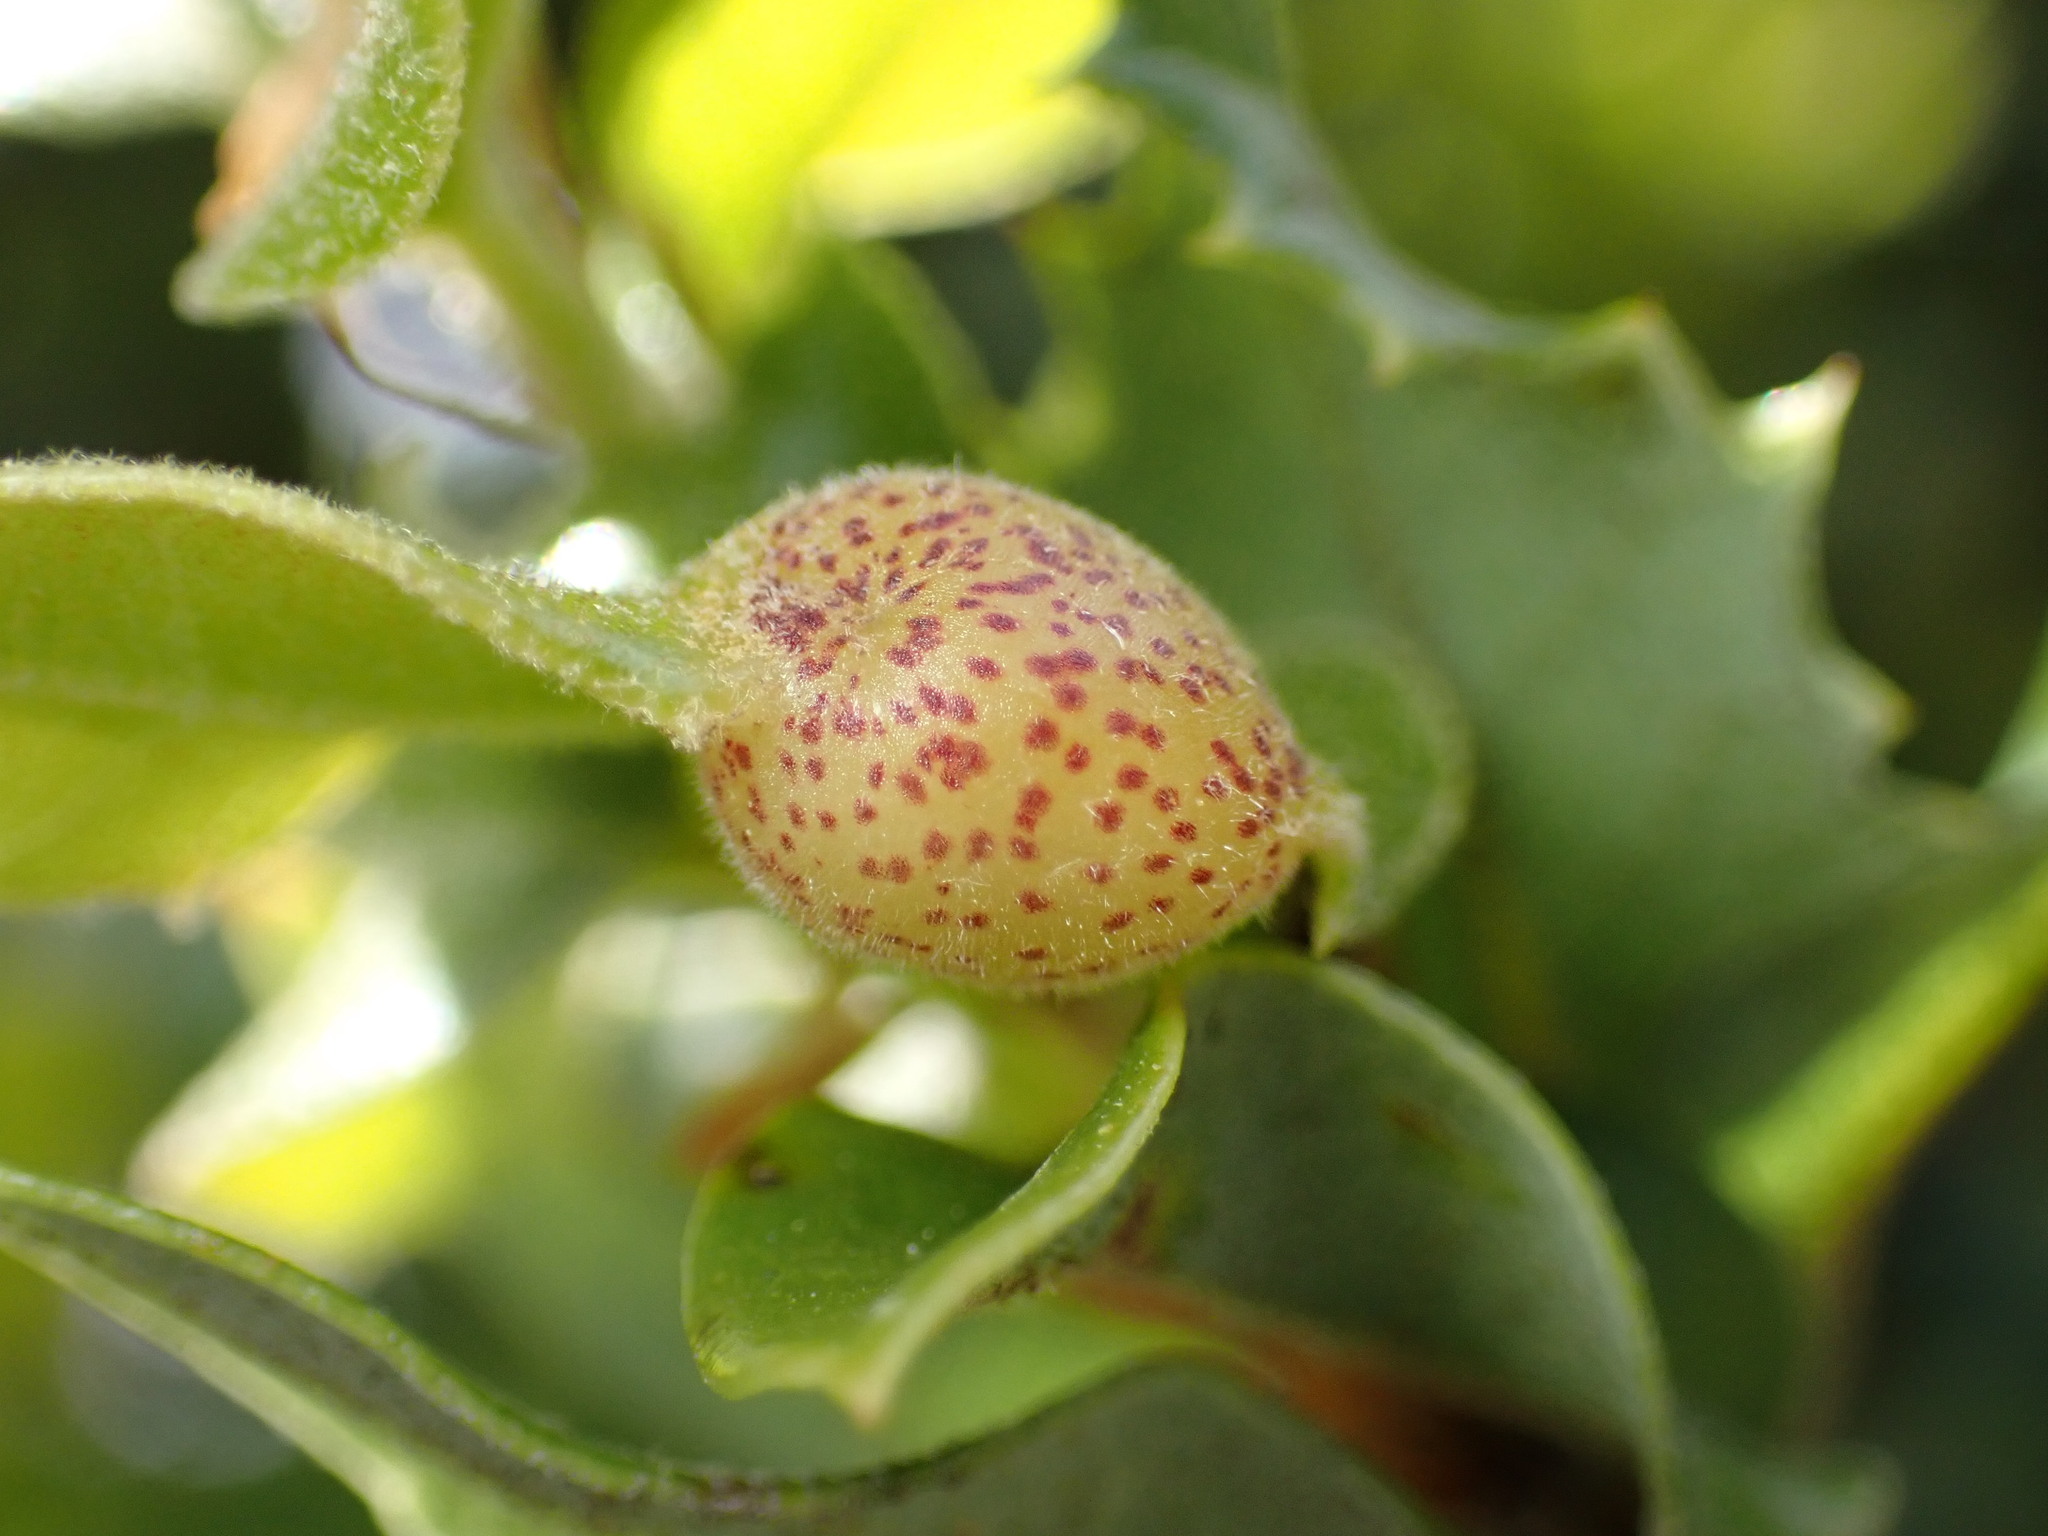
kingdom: Animalia
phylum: Arthropoda
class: Insecta
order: Hymenoptera
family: Cynipidae
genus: Heteroecus
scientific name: Heteroecus
